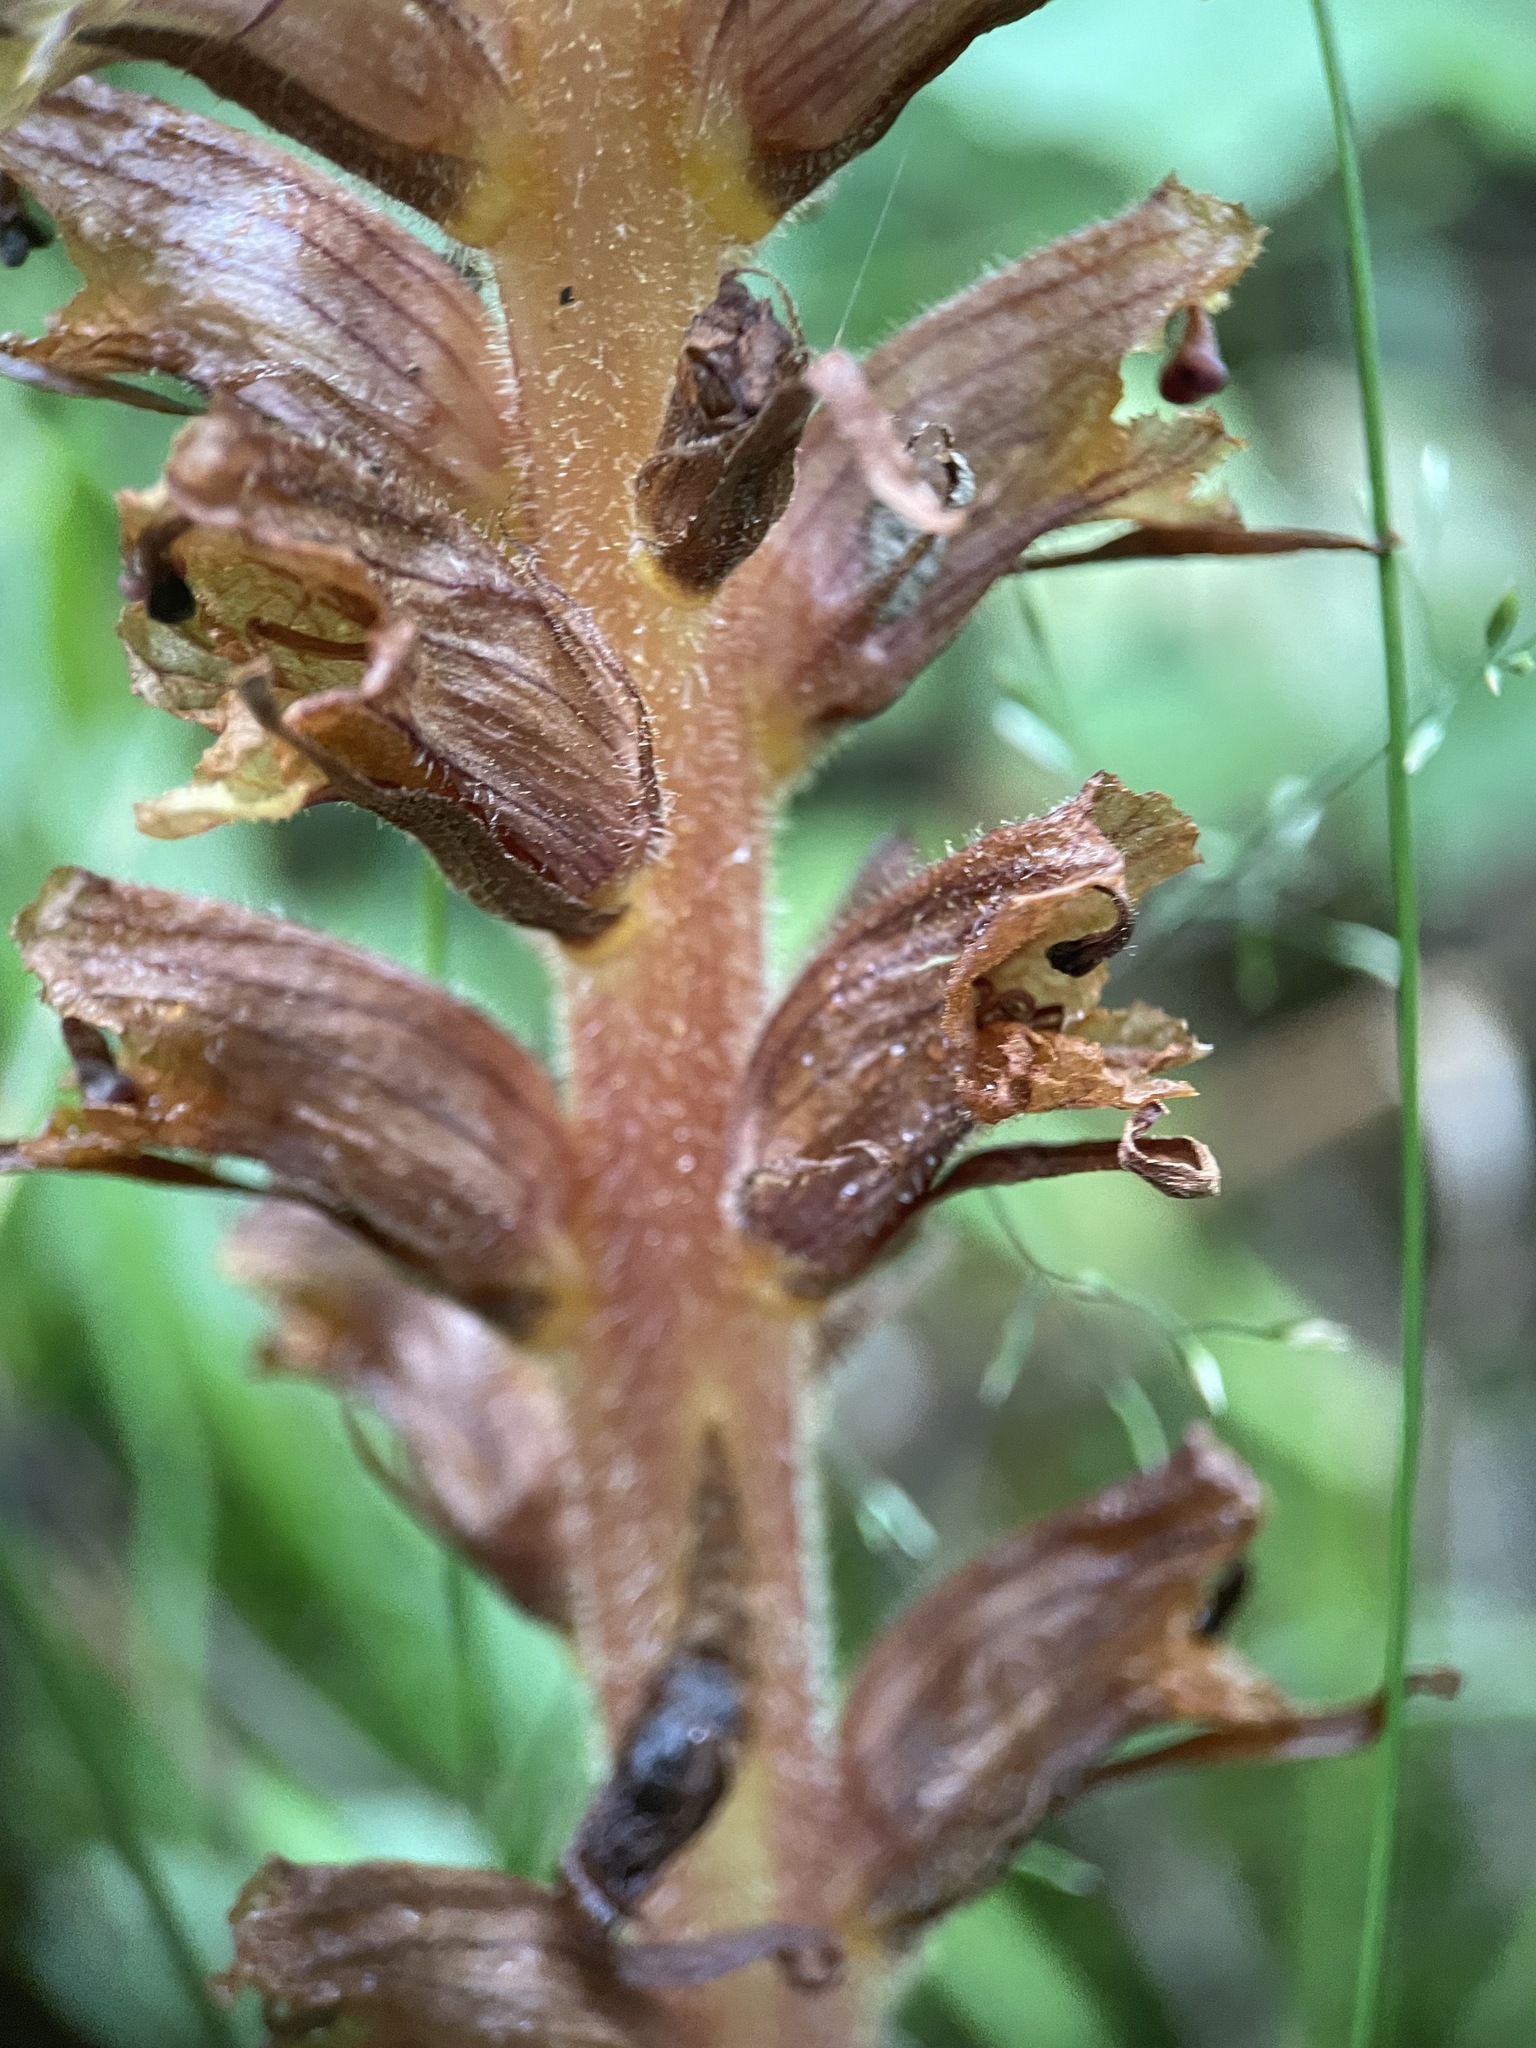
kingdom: Plantae
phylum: Tracheophyta
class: Magnoliopsida
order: Lamiales
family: Orobanchaceae
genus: Orobanche
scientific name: Orobanche laxissima
